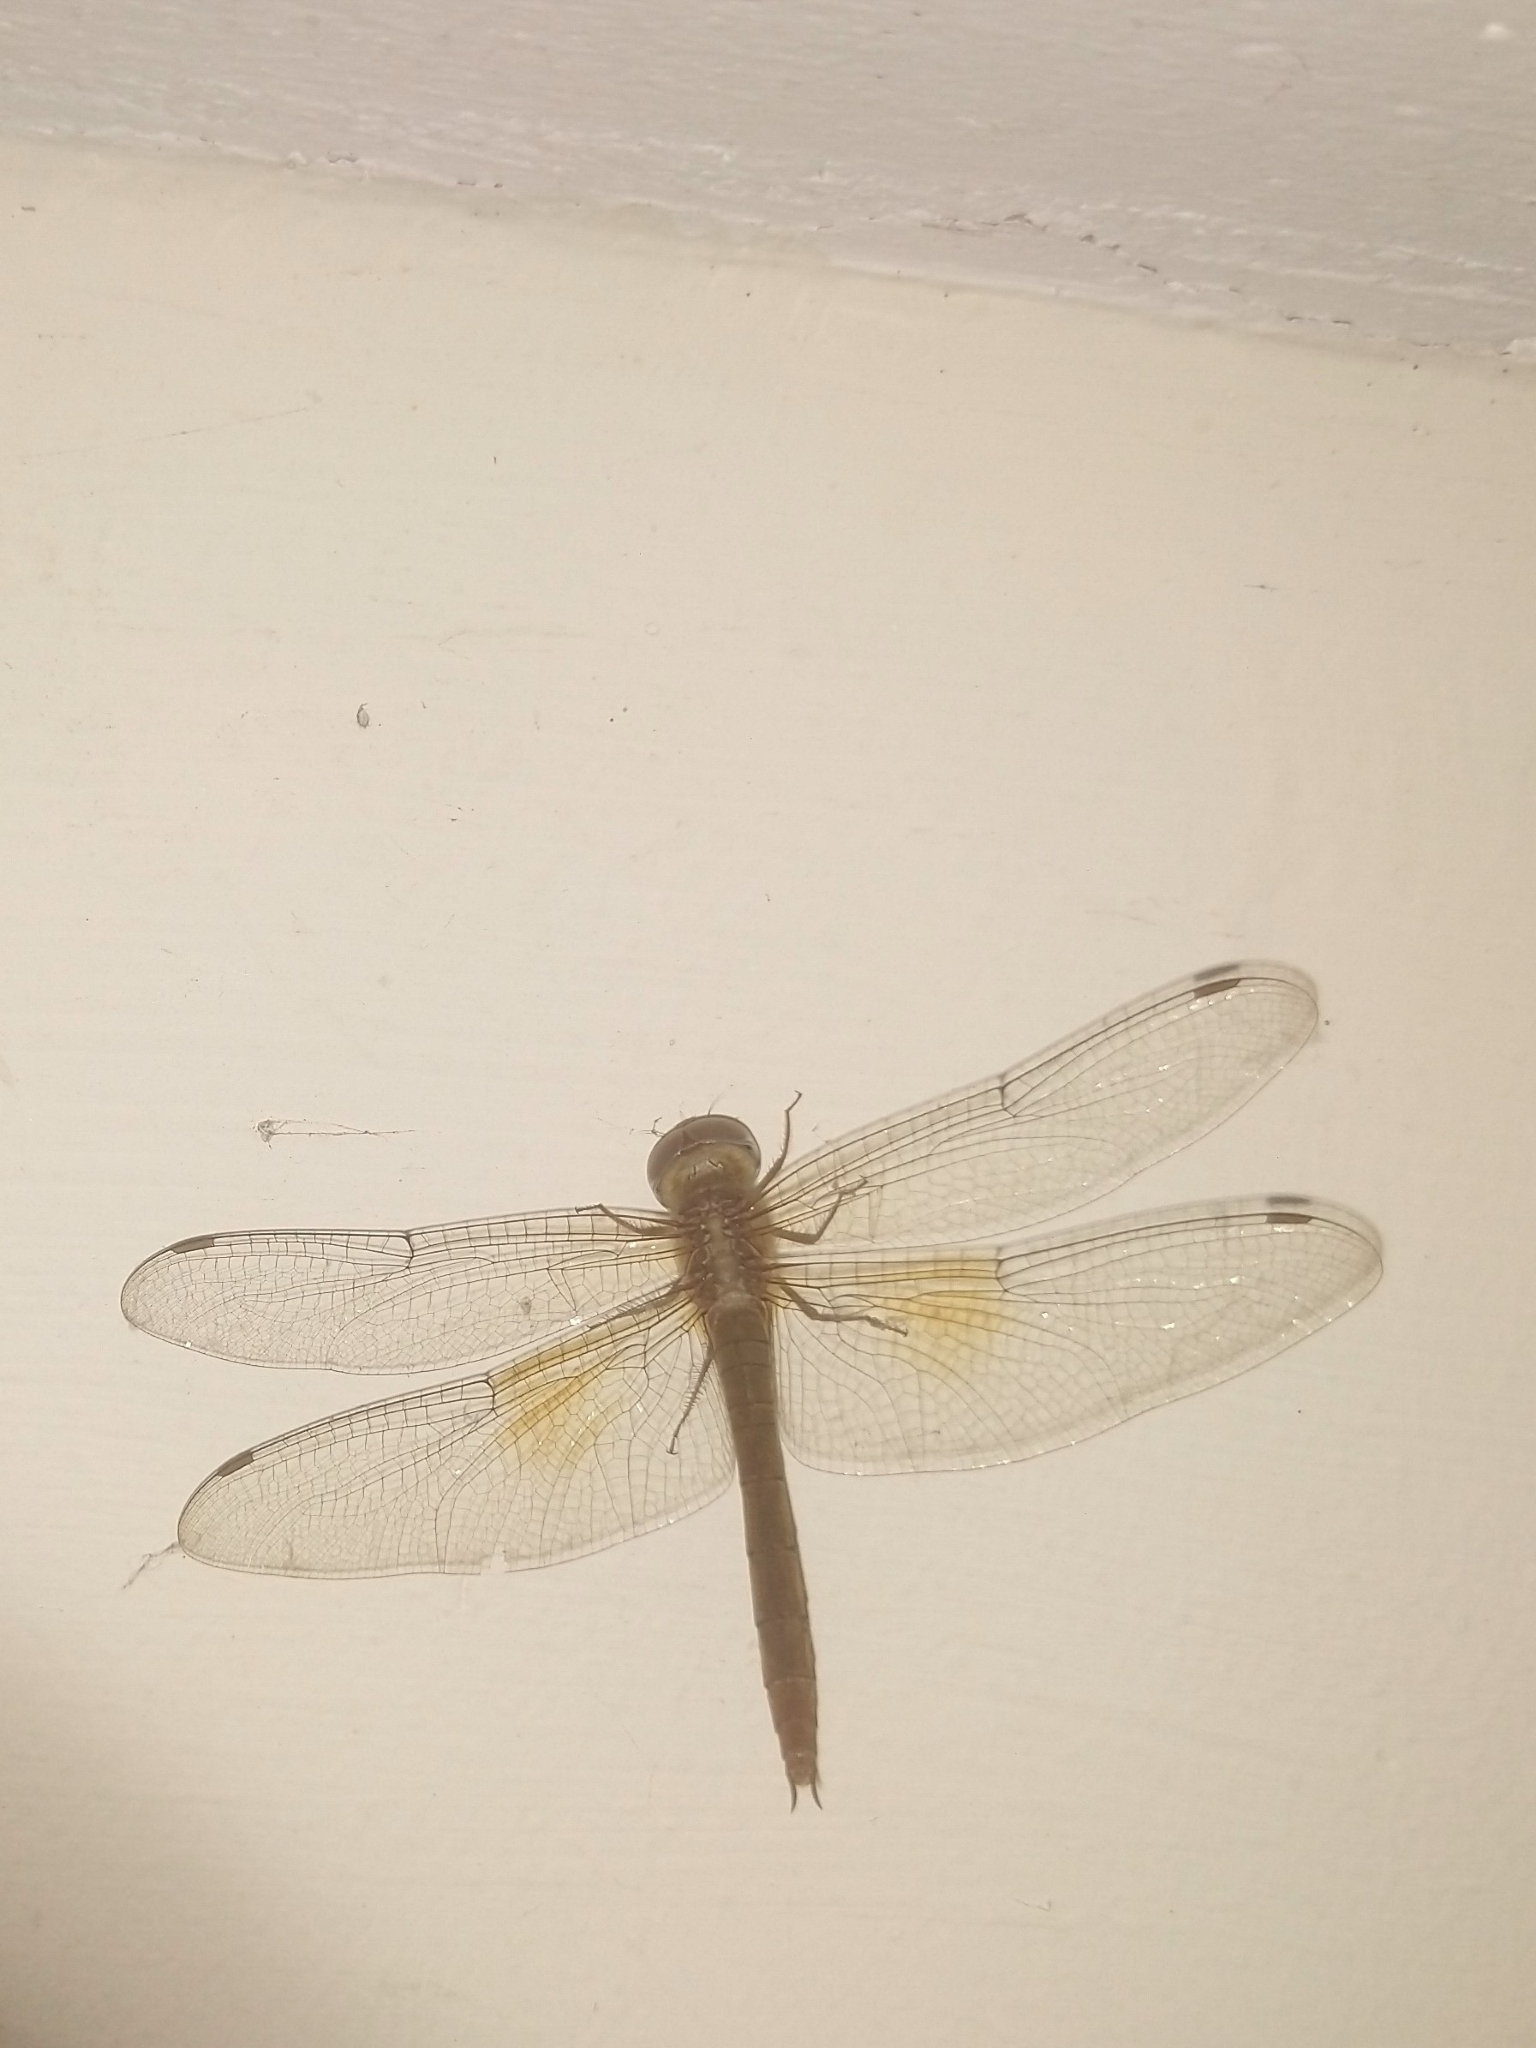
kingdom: Animalia
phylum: Arthropoda
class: Insecta
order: Odonata
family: Libellulidae
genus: Tholymis
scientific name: Tholymis tillarga
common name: Coral-tailed cloud wing
